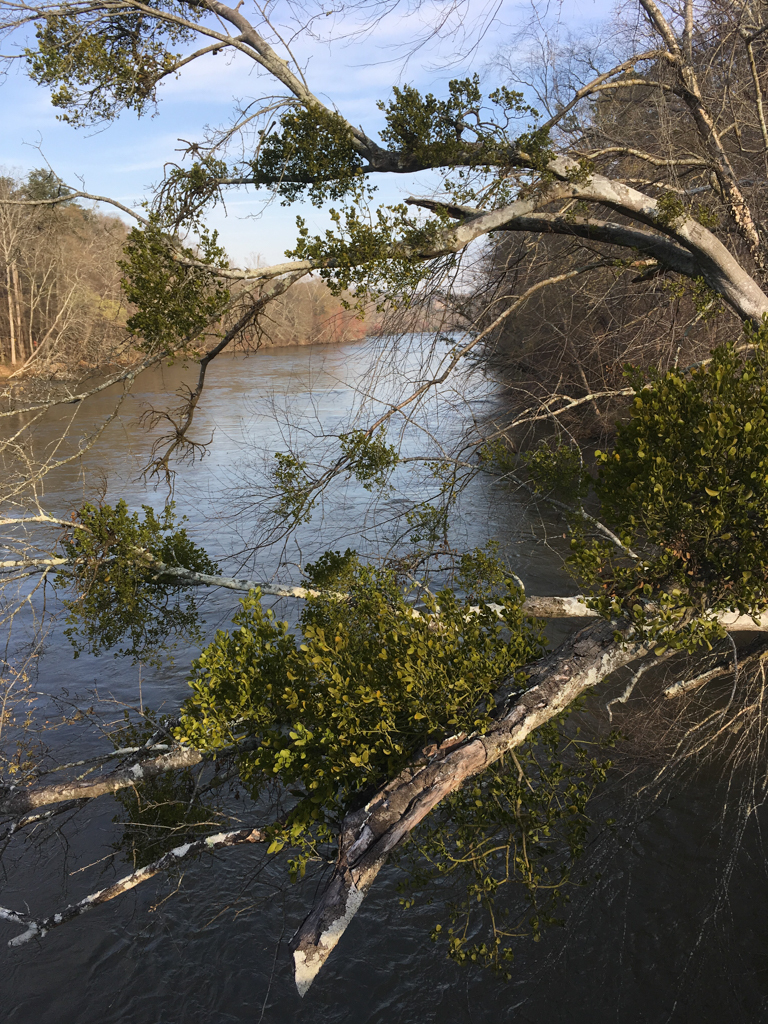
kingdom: Plantae
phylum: Tracheophyta
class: Magnoliopsida
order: Santalales
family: Viscaceae
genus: Phoradendron
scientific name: Phoradendron leucarpum
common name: Pacific mistletoe
